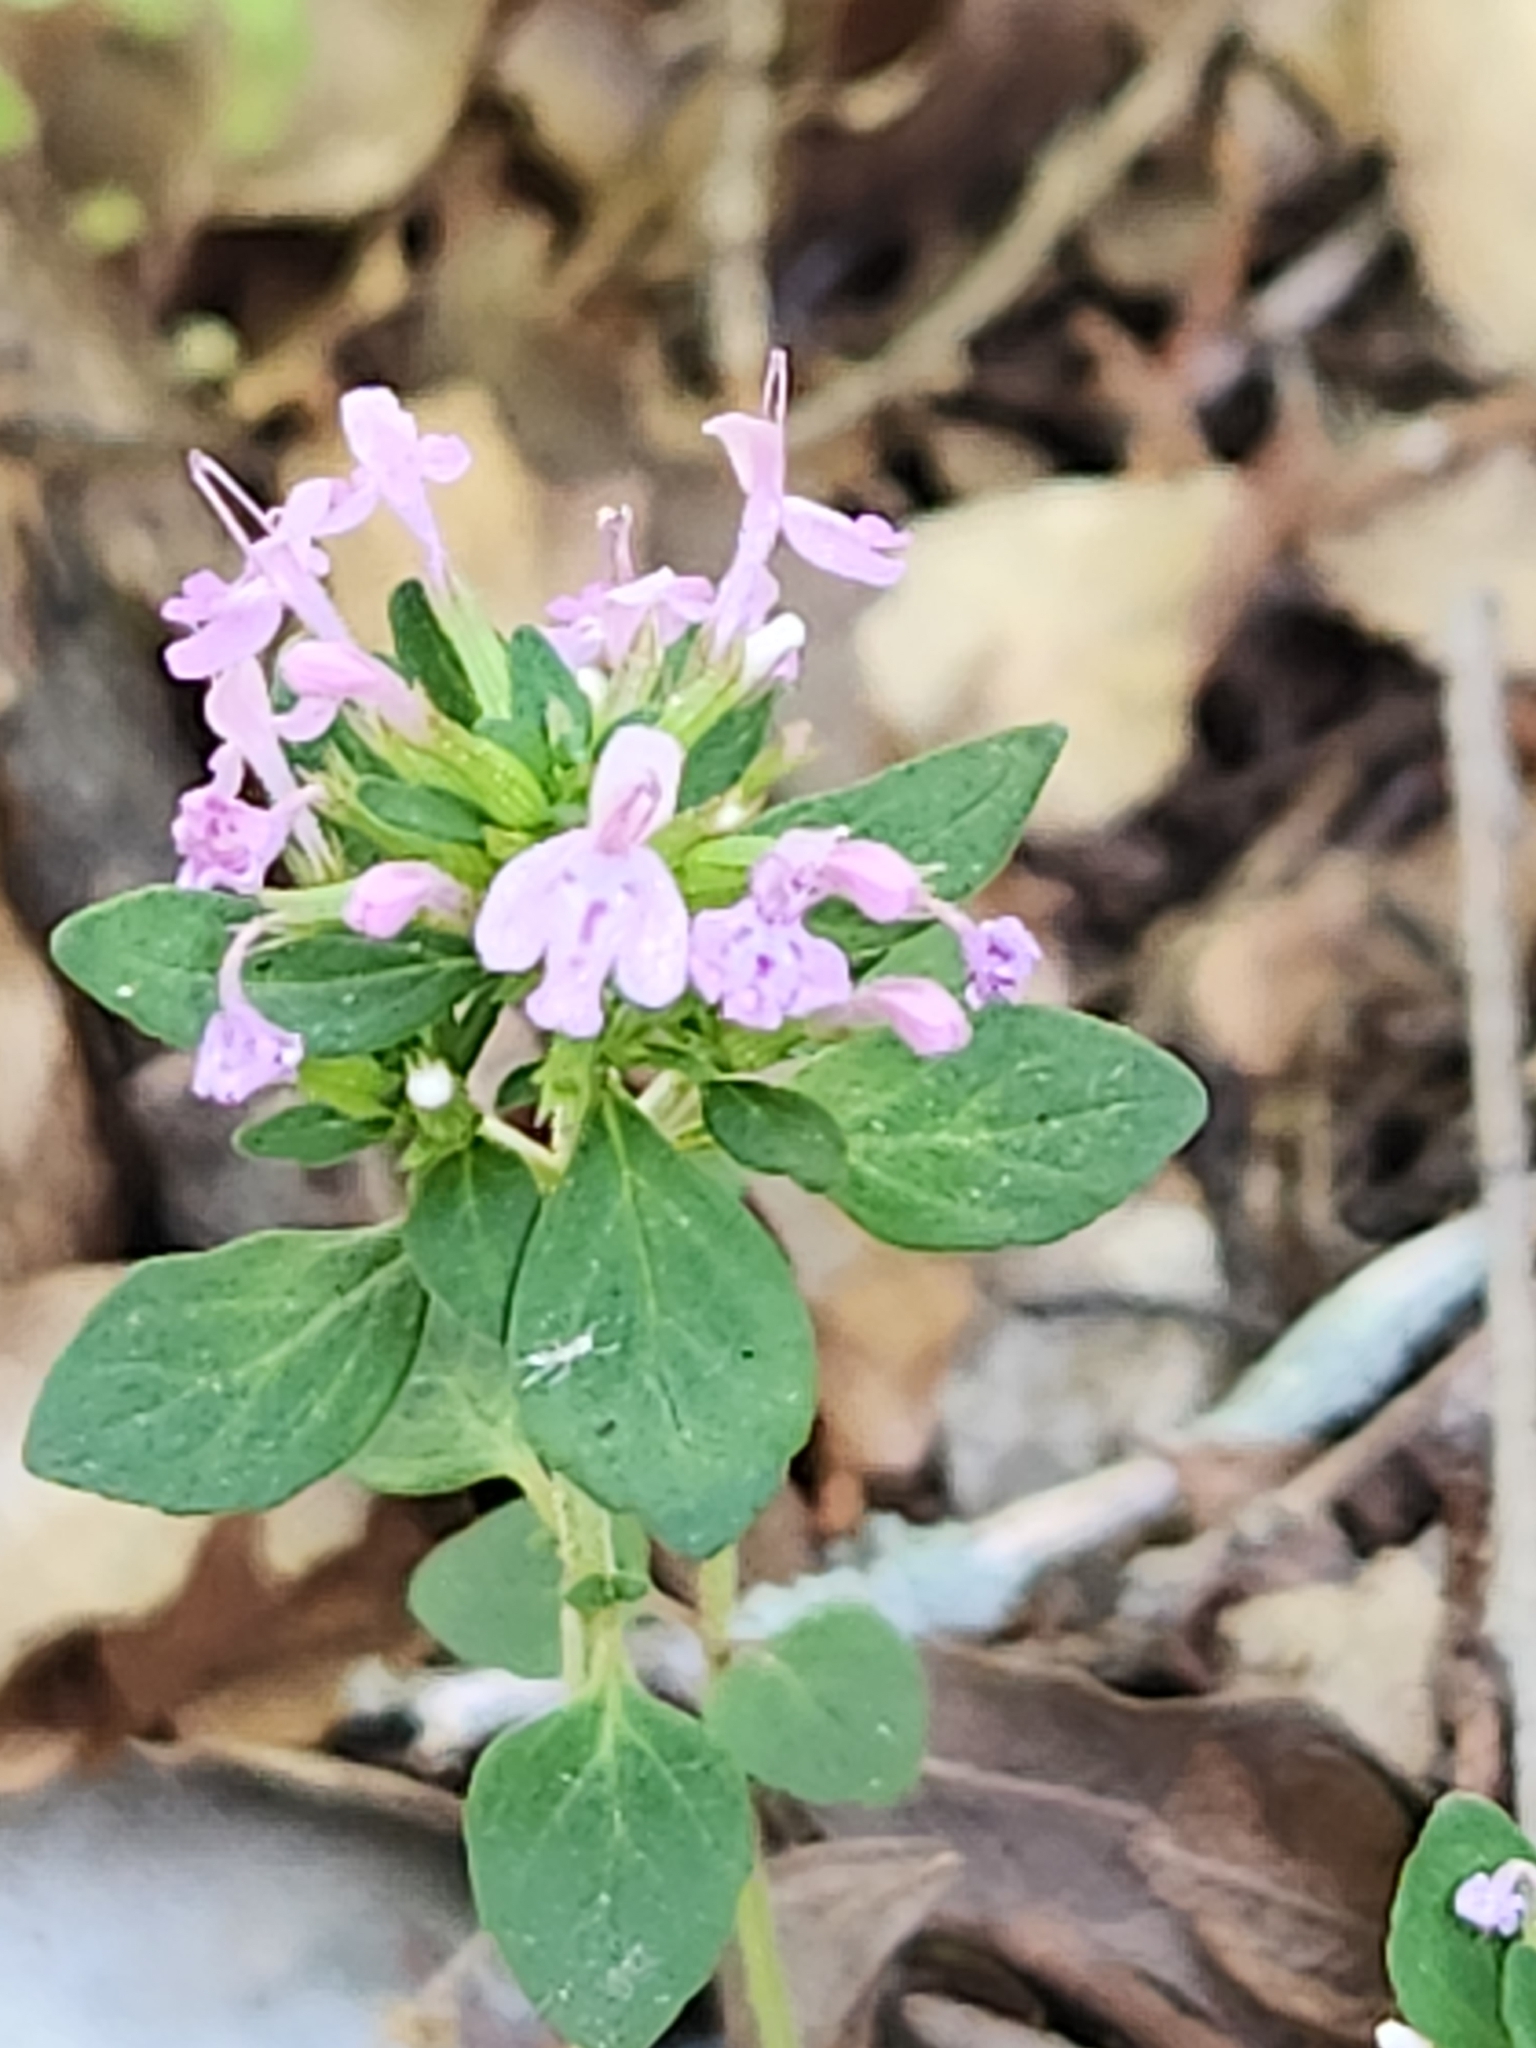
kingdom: Plantae
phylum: Tracheophyta
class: Magnoliopsida
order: Lamiales
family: Lamiaceae
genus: Hedeoma
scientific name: Hedeoma acinoides
